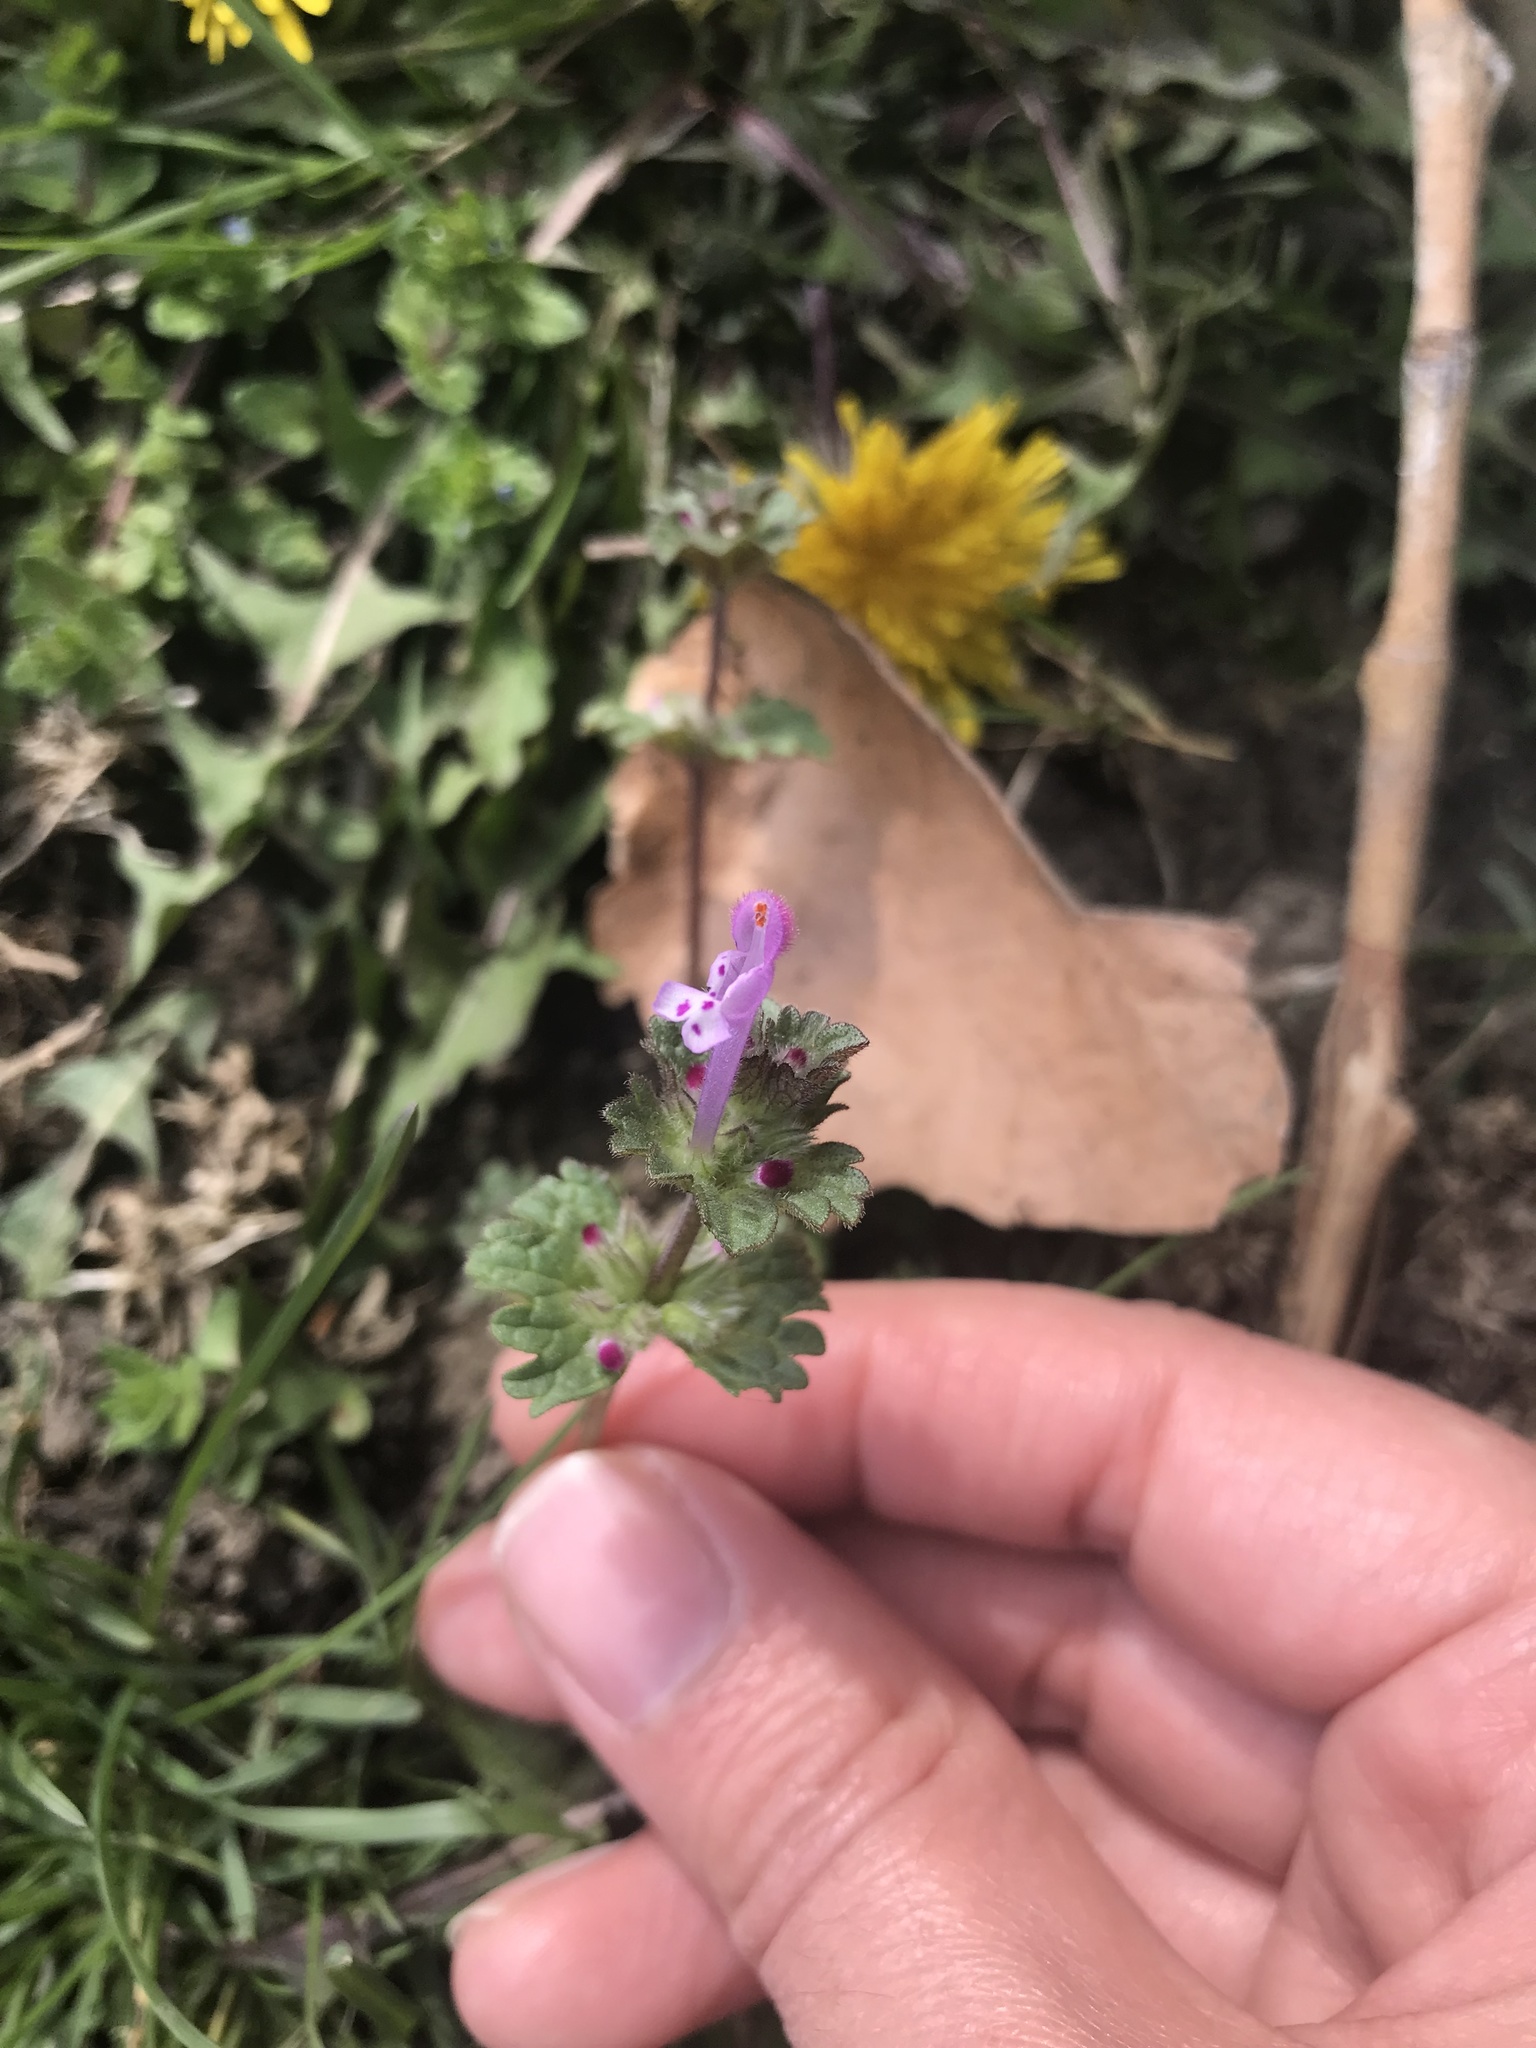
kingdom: Plantae
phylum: Tracheophyta
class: Magnoliopsida
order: Lamiales
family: Lamiaceae
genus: Lamium
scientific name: Lamium amplexicaule
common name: Henbit dead-nettle
